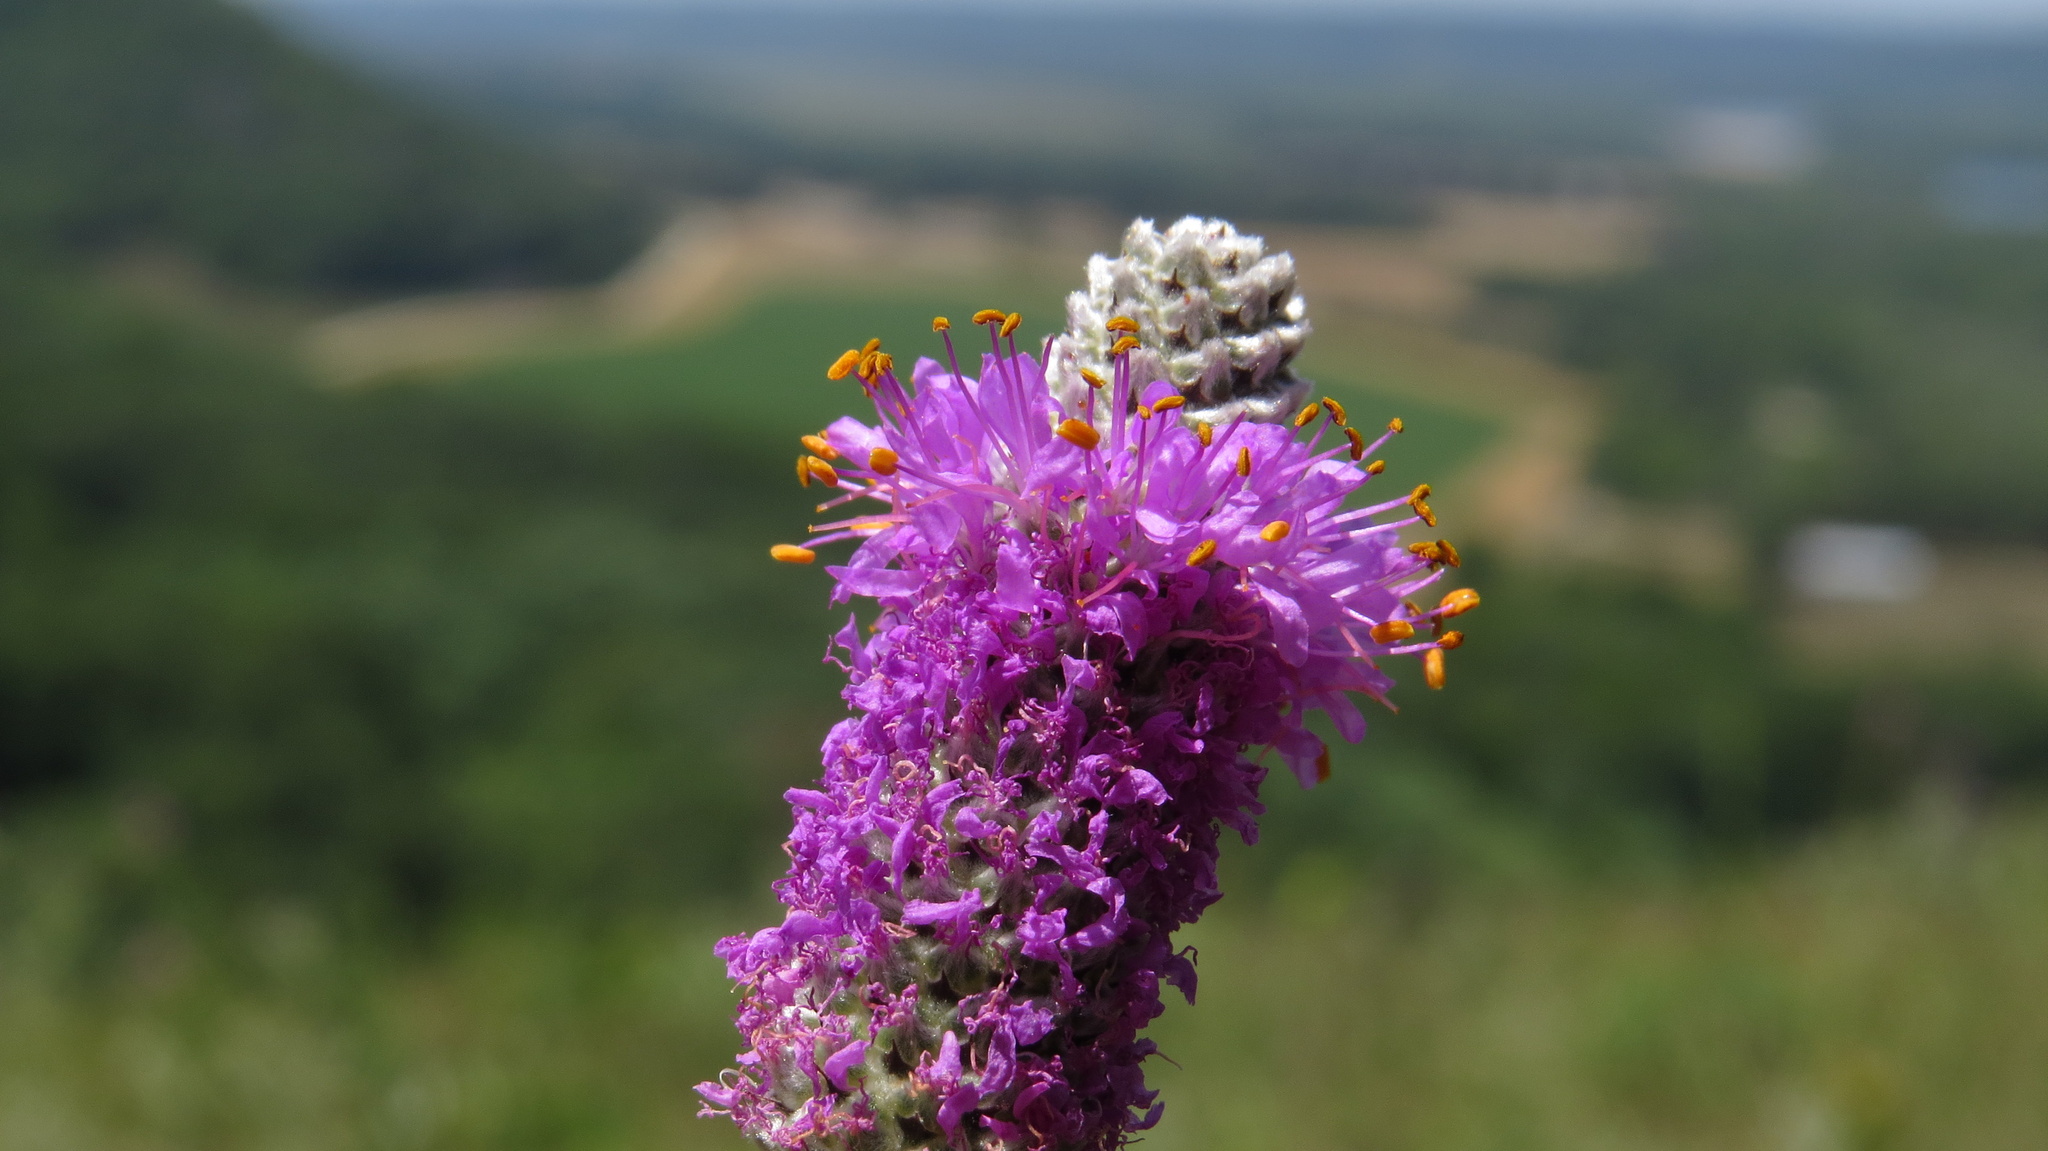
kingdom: Plantae
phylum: Tracheophyta
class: Magnoliopsida
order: Fabales
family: Fabaceae
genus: Dalea
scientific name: Dalea purpurea
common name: Purple prairie-clover
